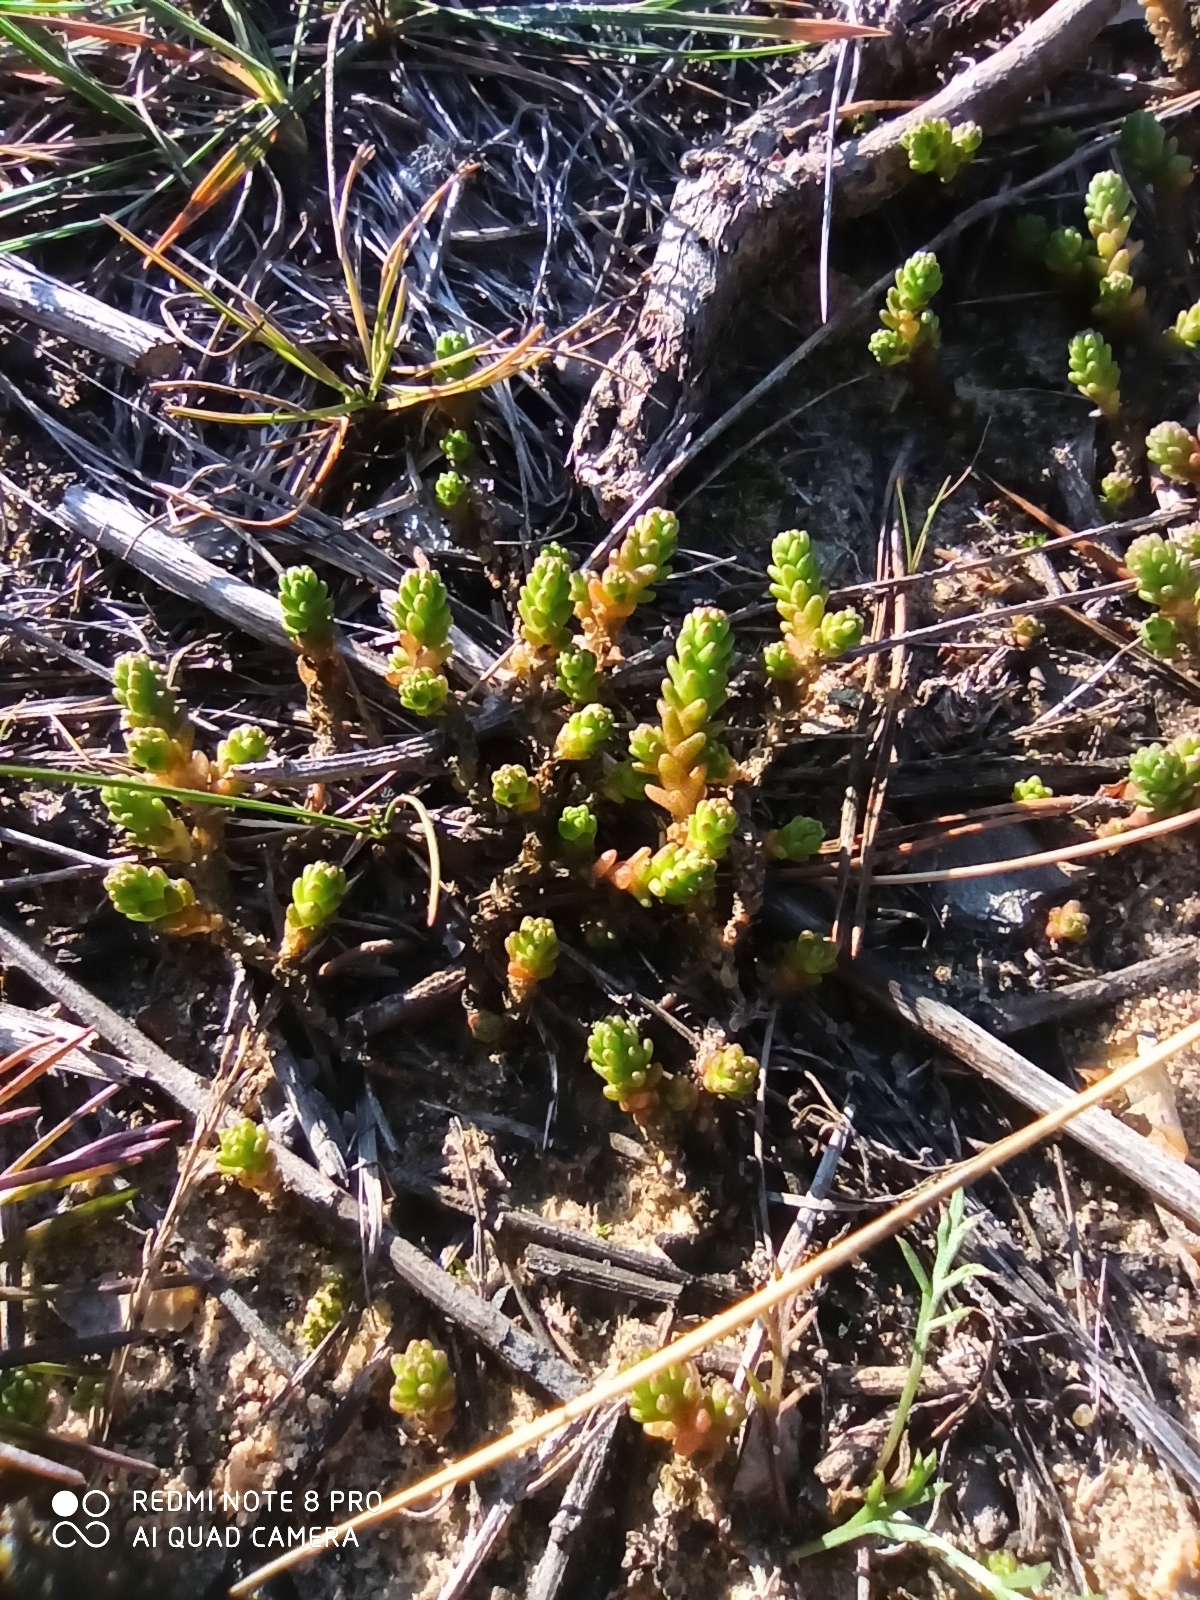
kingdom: Plantae
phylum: Tracheophyta
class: Magnoliopsida
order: Saxifragales
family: Crassulaceae
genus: Sedum
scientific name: Sedum acre
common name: Biting stonecrop
